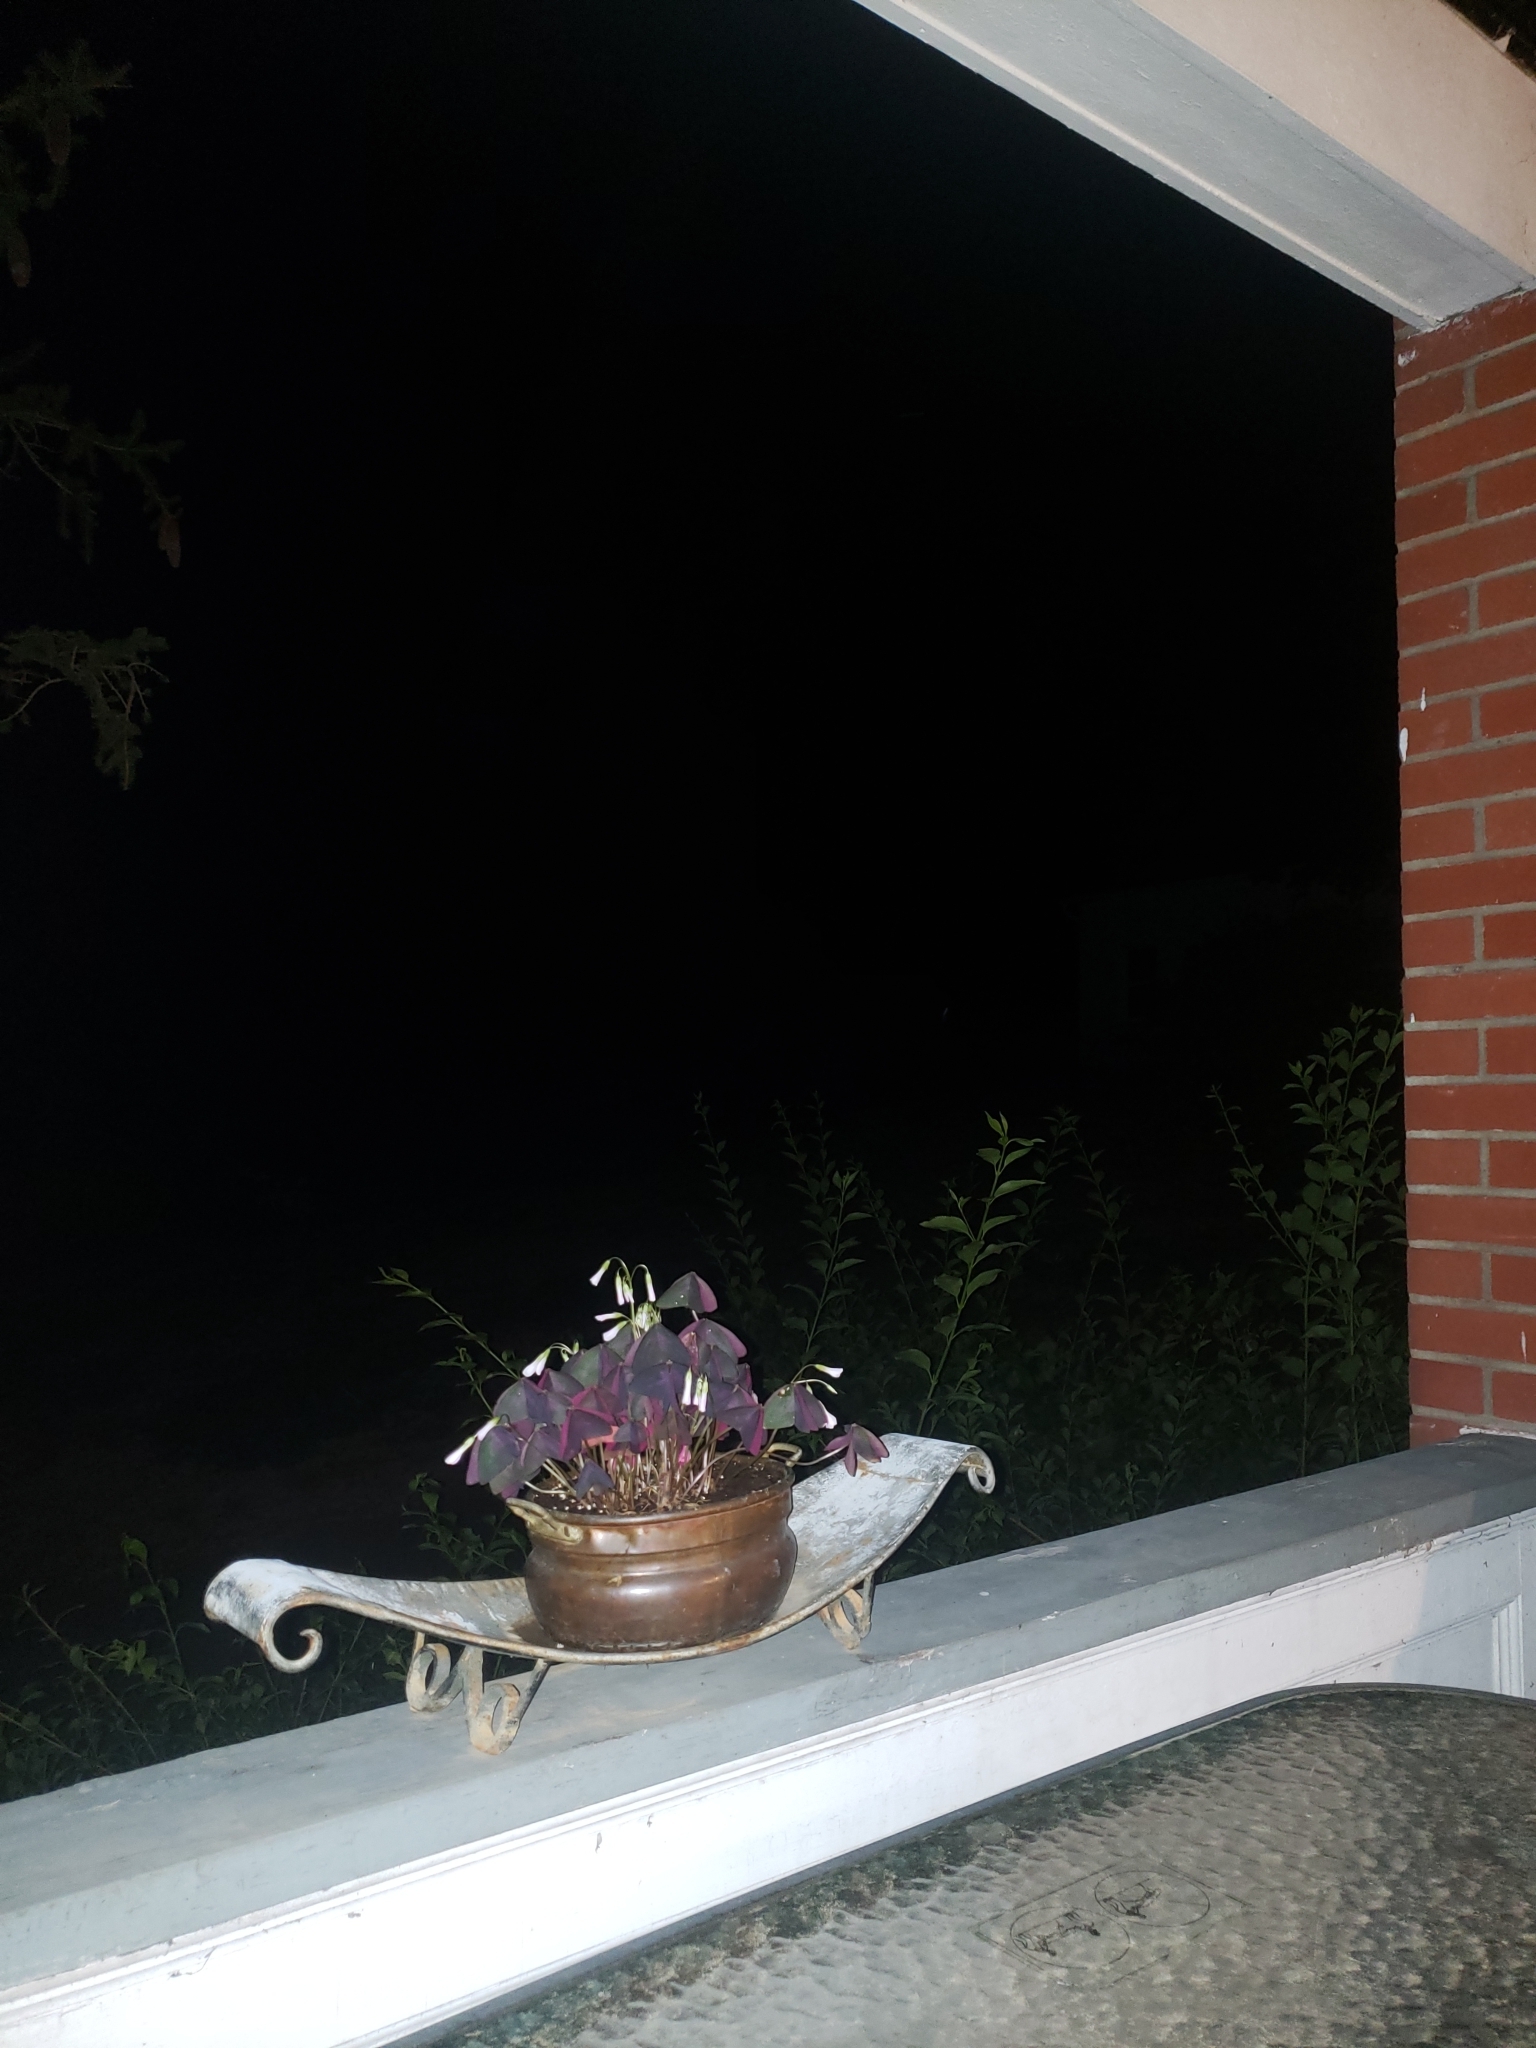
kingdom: Animalia
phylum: Chordata
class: Aves
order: Strigiformes
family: Strigidae
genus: Megascops
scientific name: Megascops asio
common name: Eastern screech-owl
